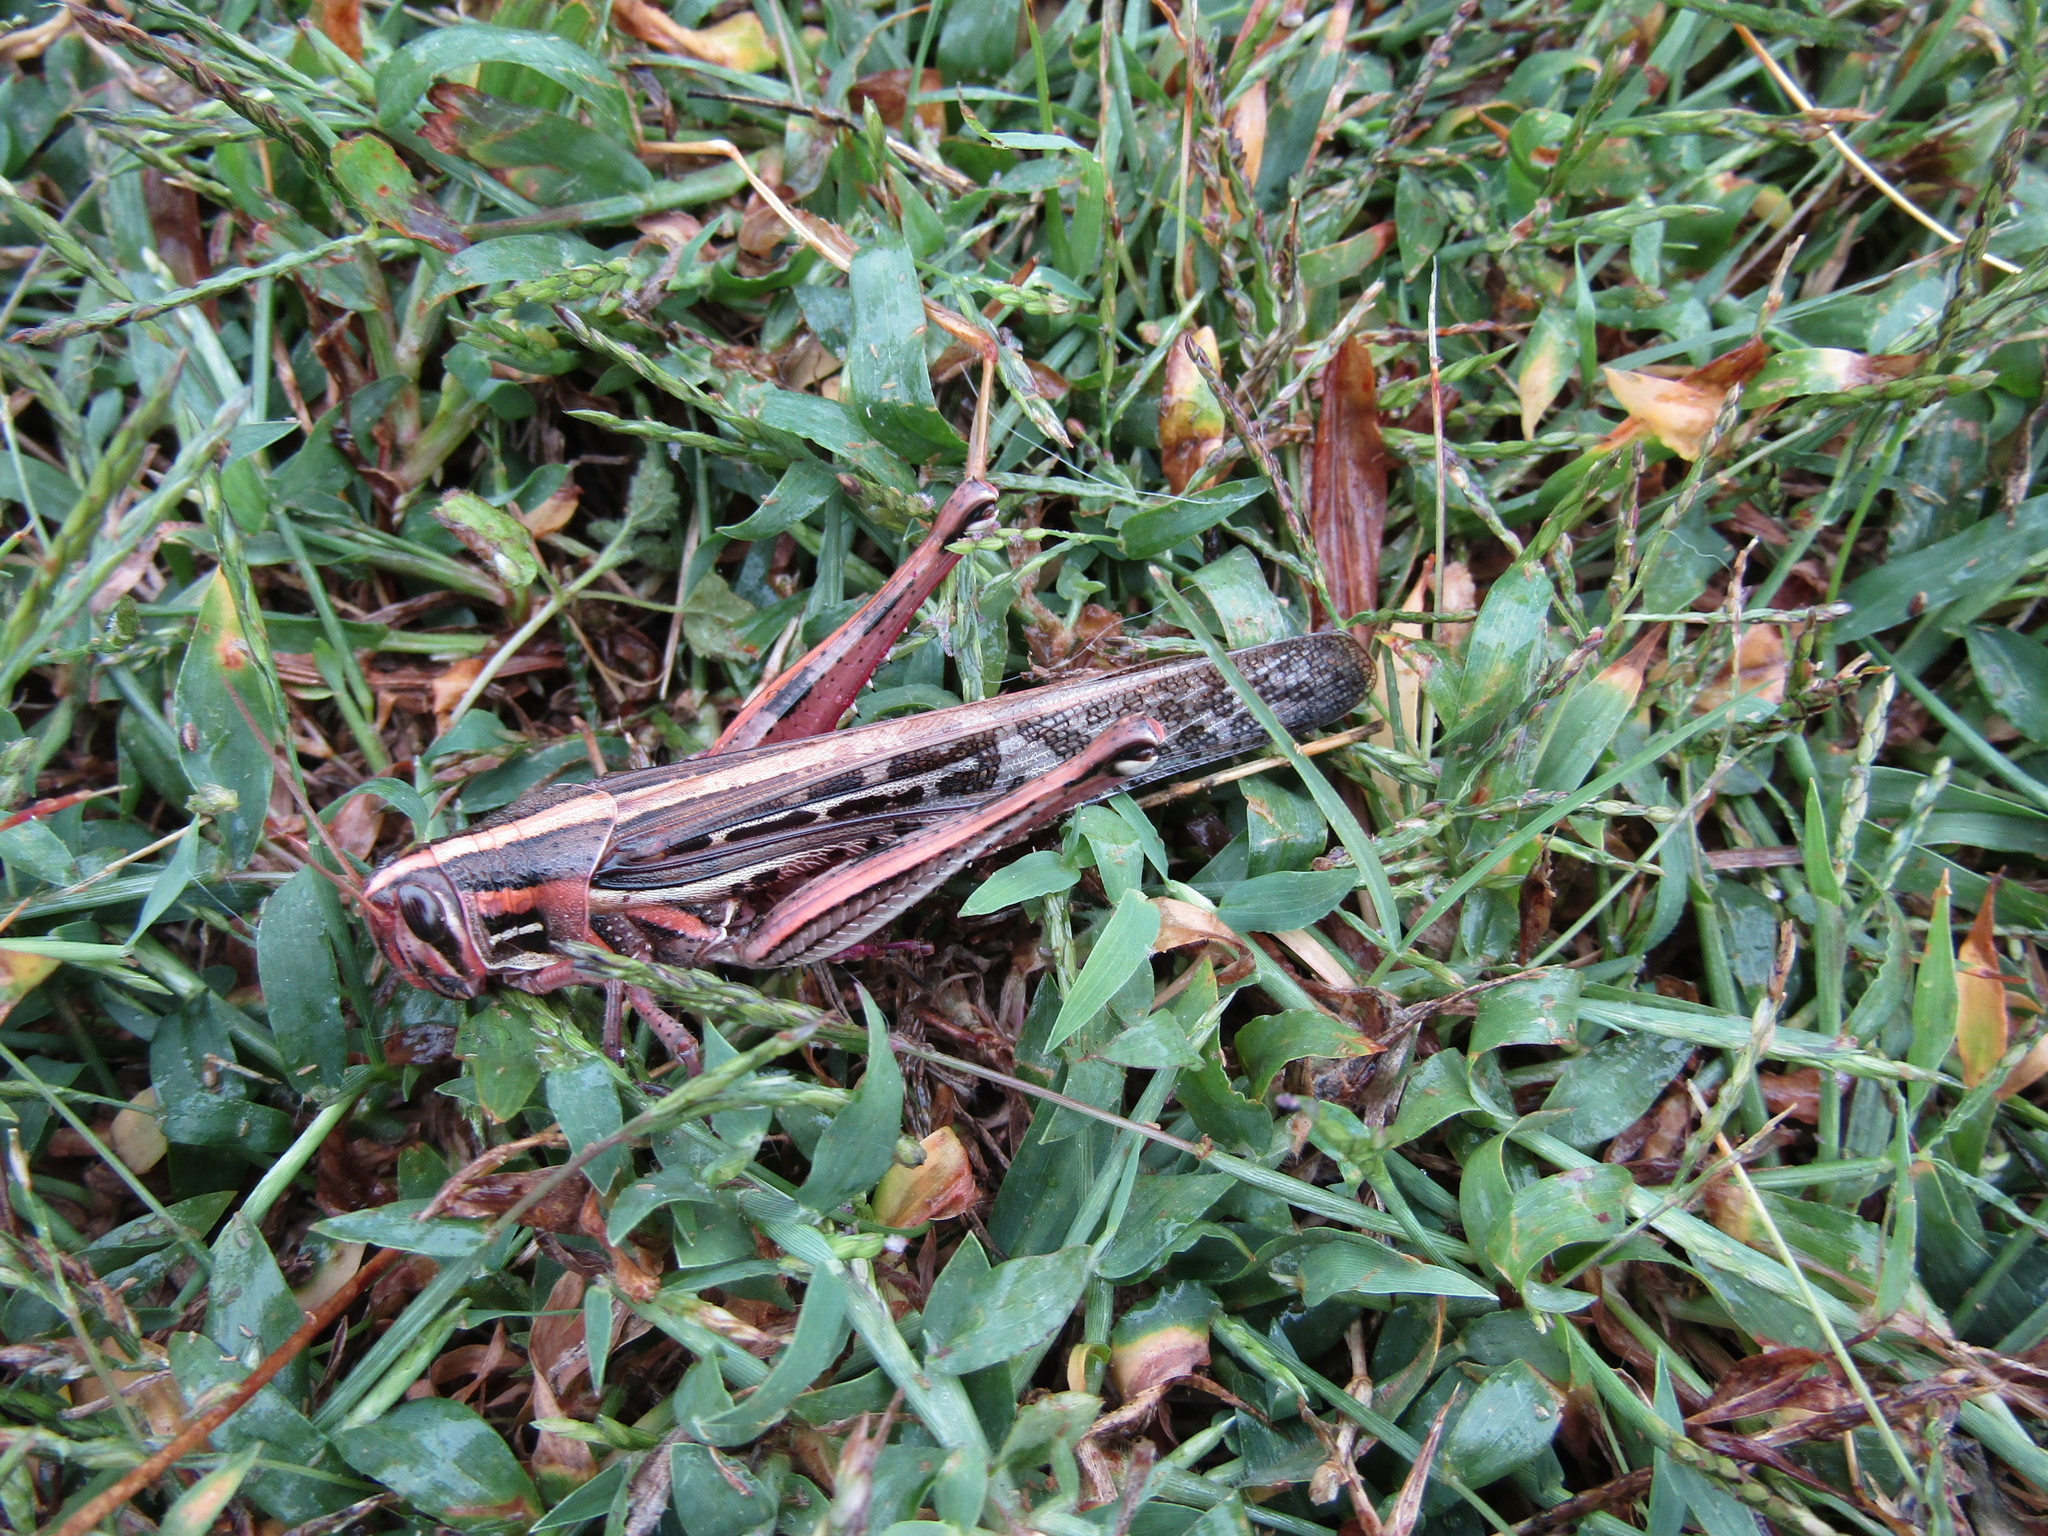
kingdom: Animalia
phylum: Arthropoda
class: Insecta
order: Orthoptera
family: Acrididae
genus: Schistocerca
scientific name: Schistocerca americana
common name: American bird locust
